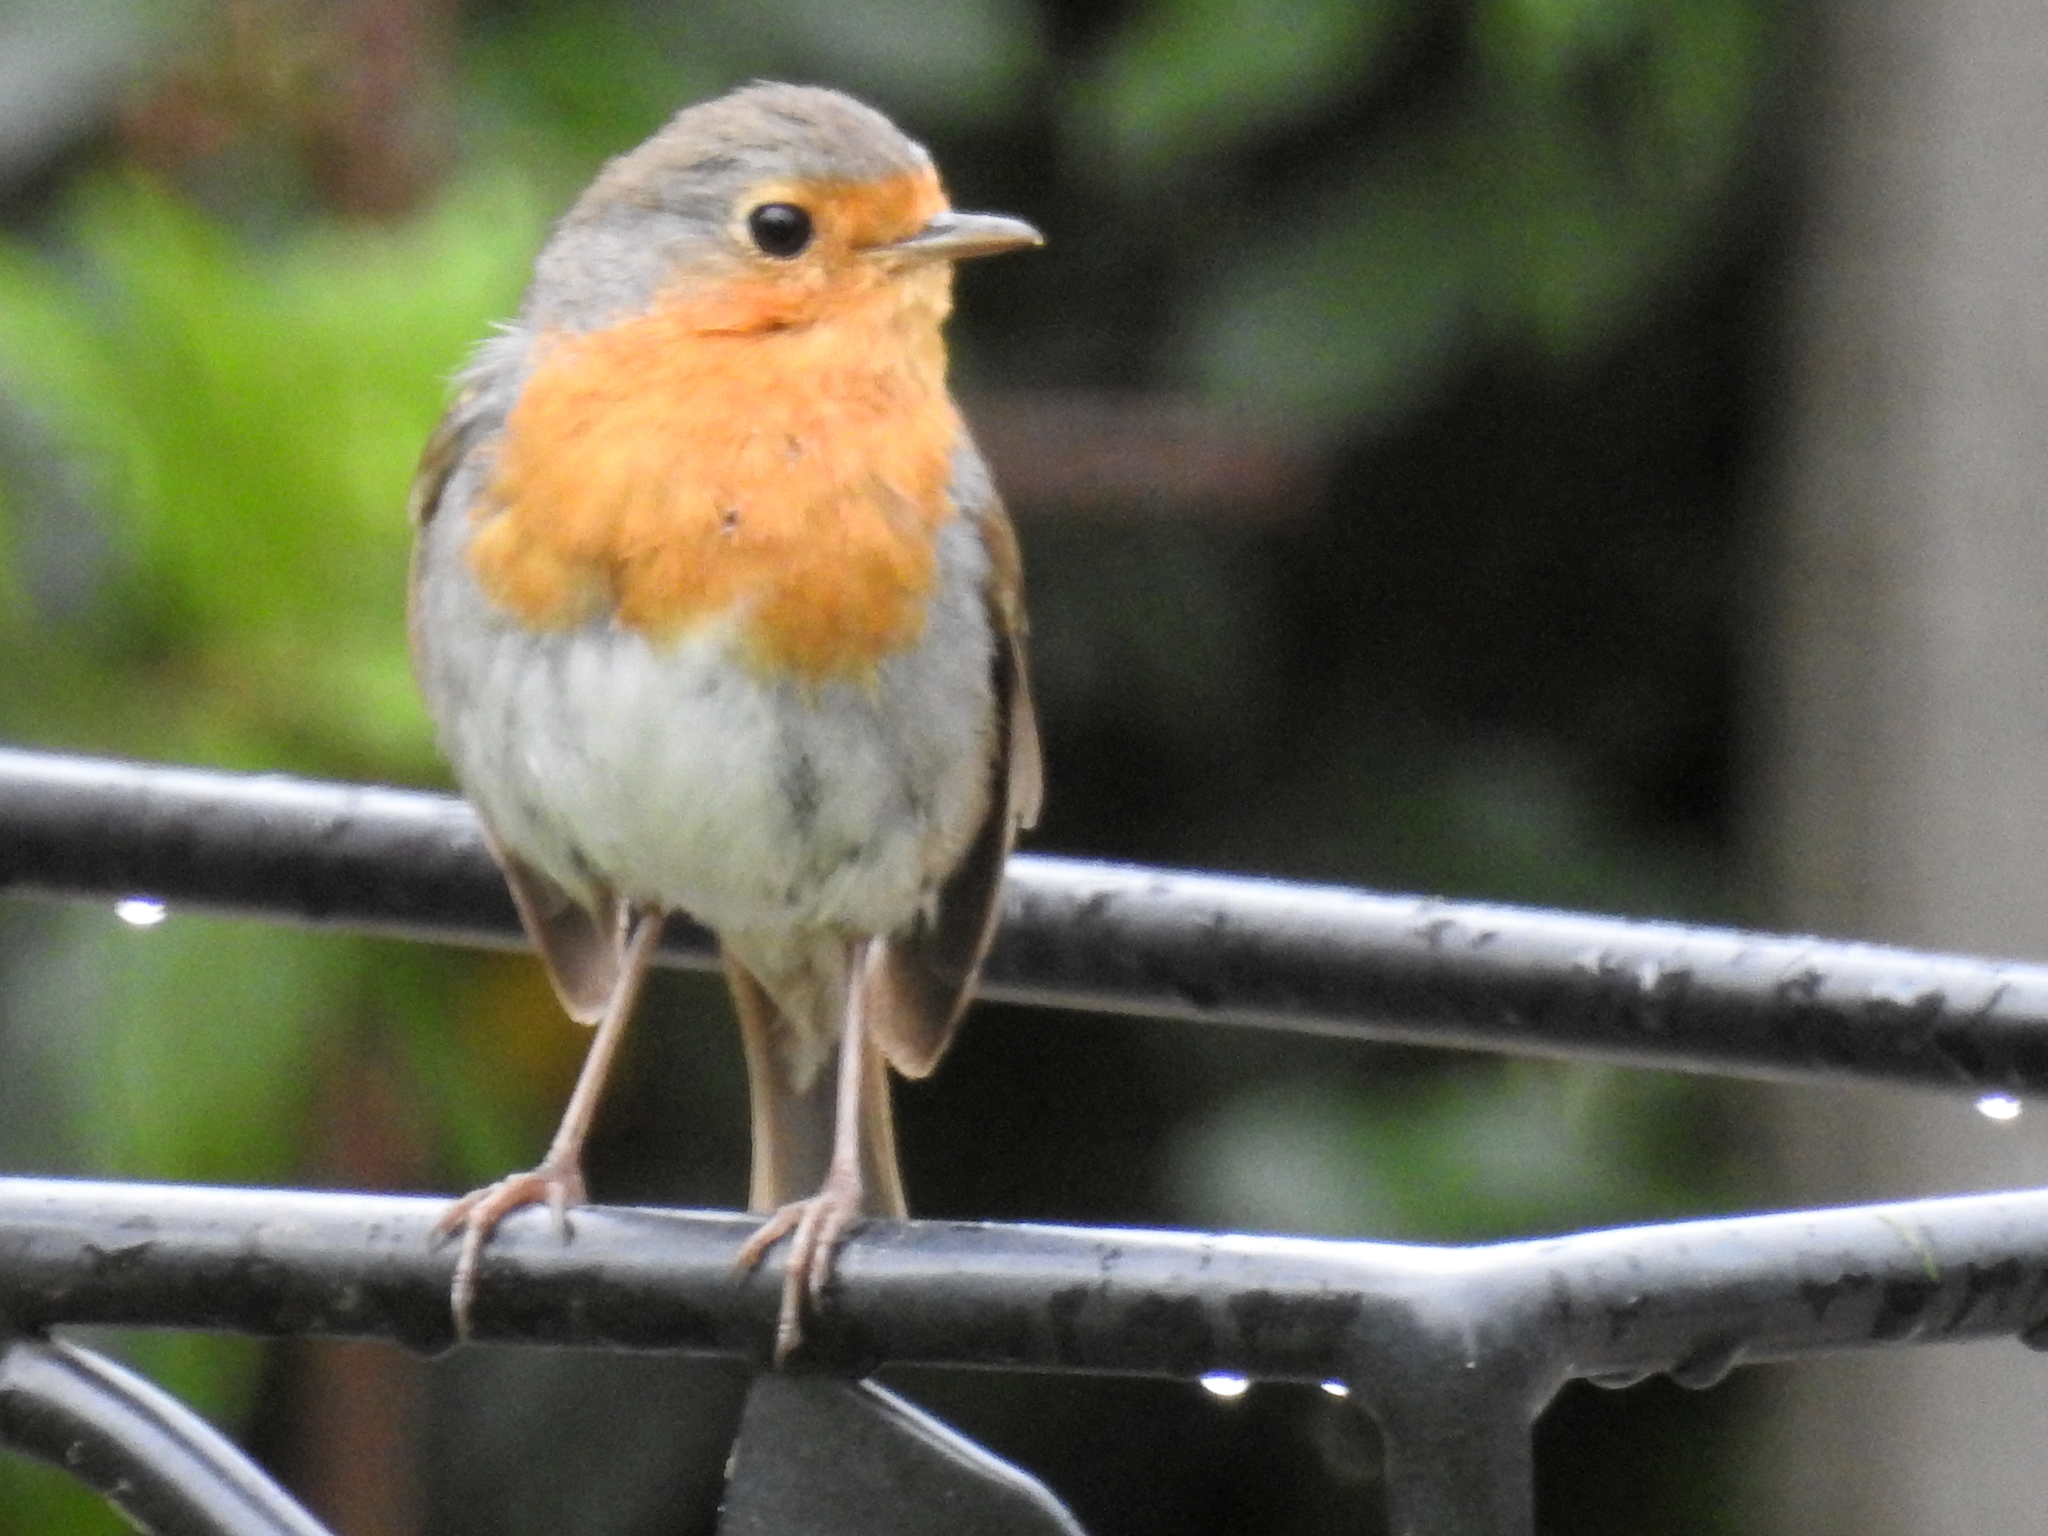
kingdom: Animalia
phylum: Chordata
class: Aves
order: Passeriformes
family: Muscicapidae
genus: Erithacus
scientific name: Erithacus rubecula
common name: European robin
